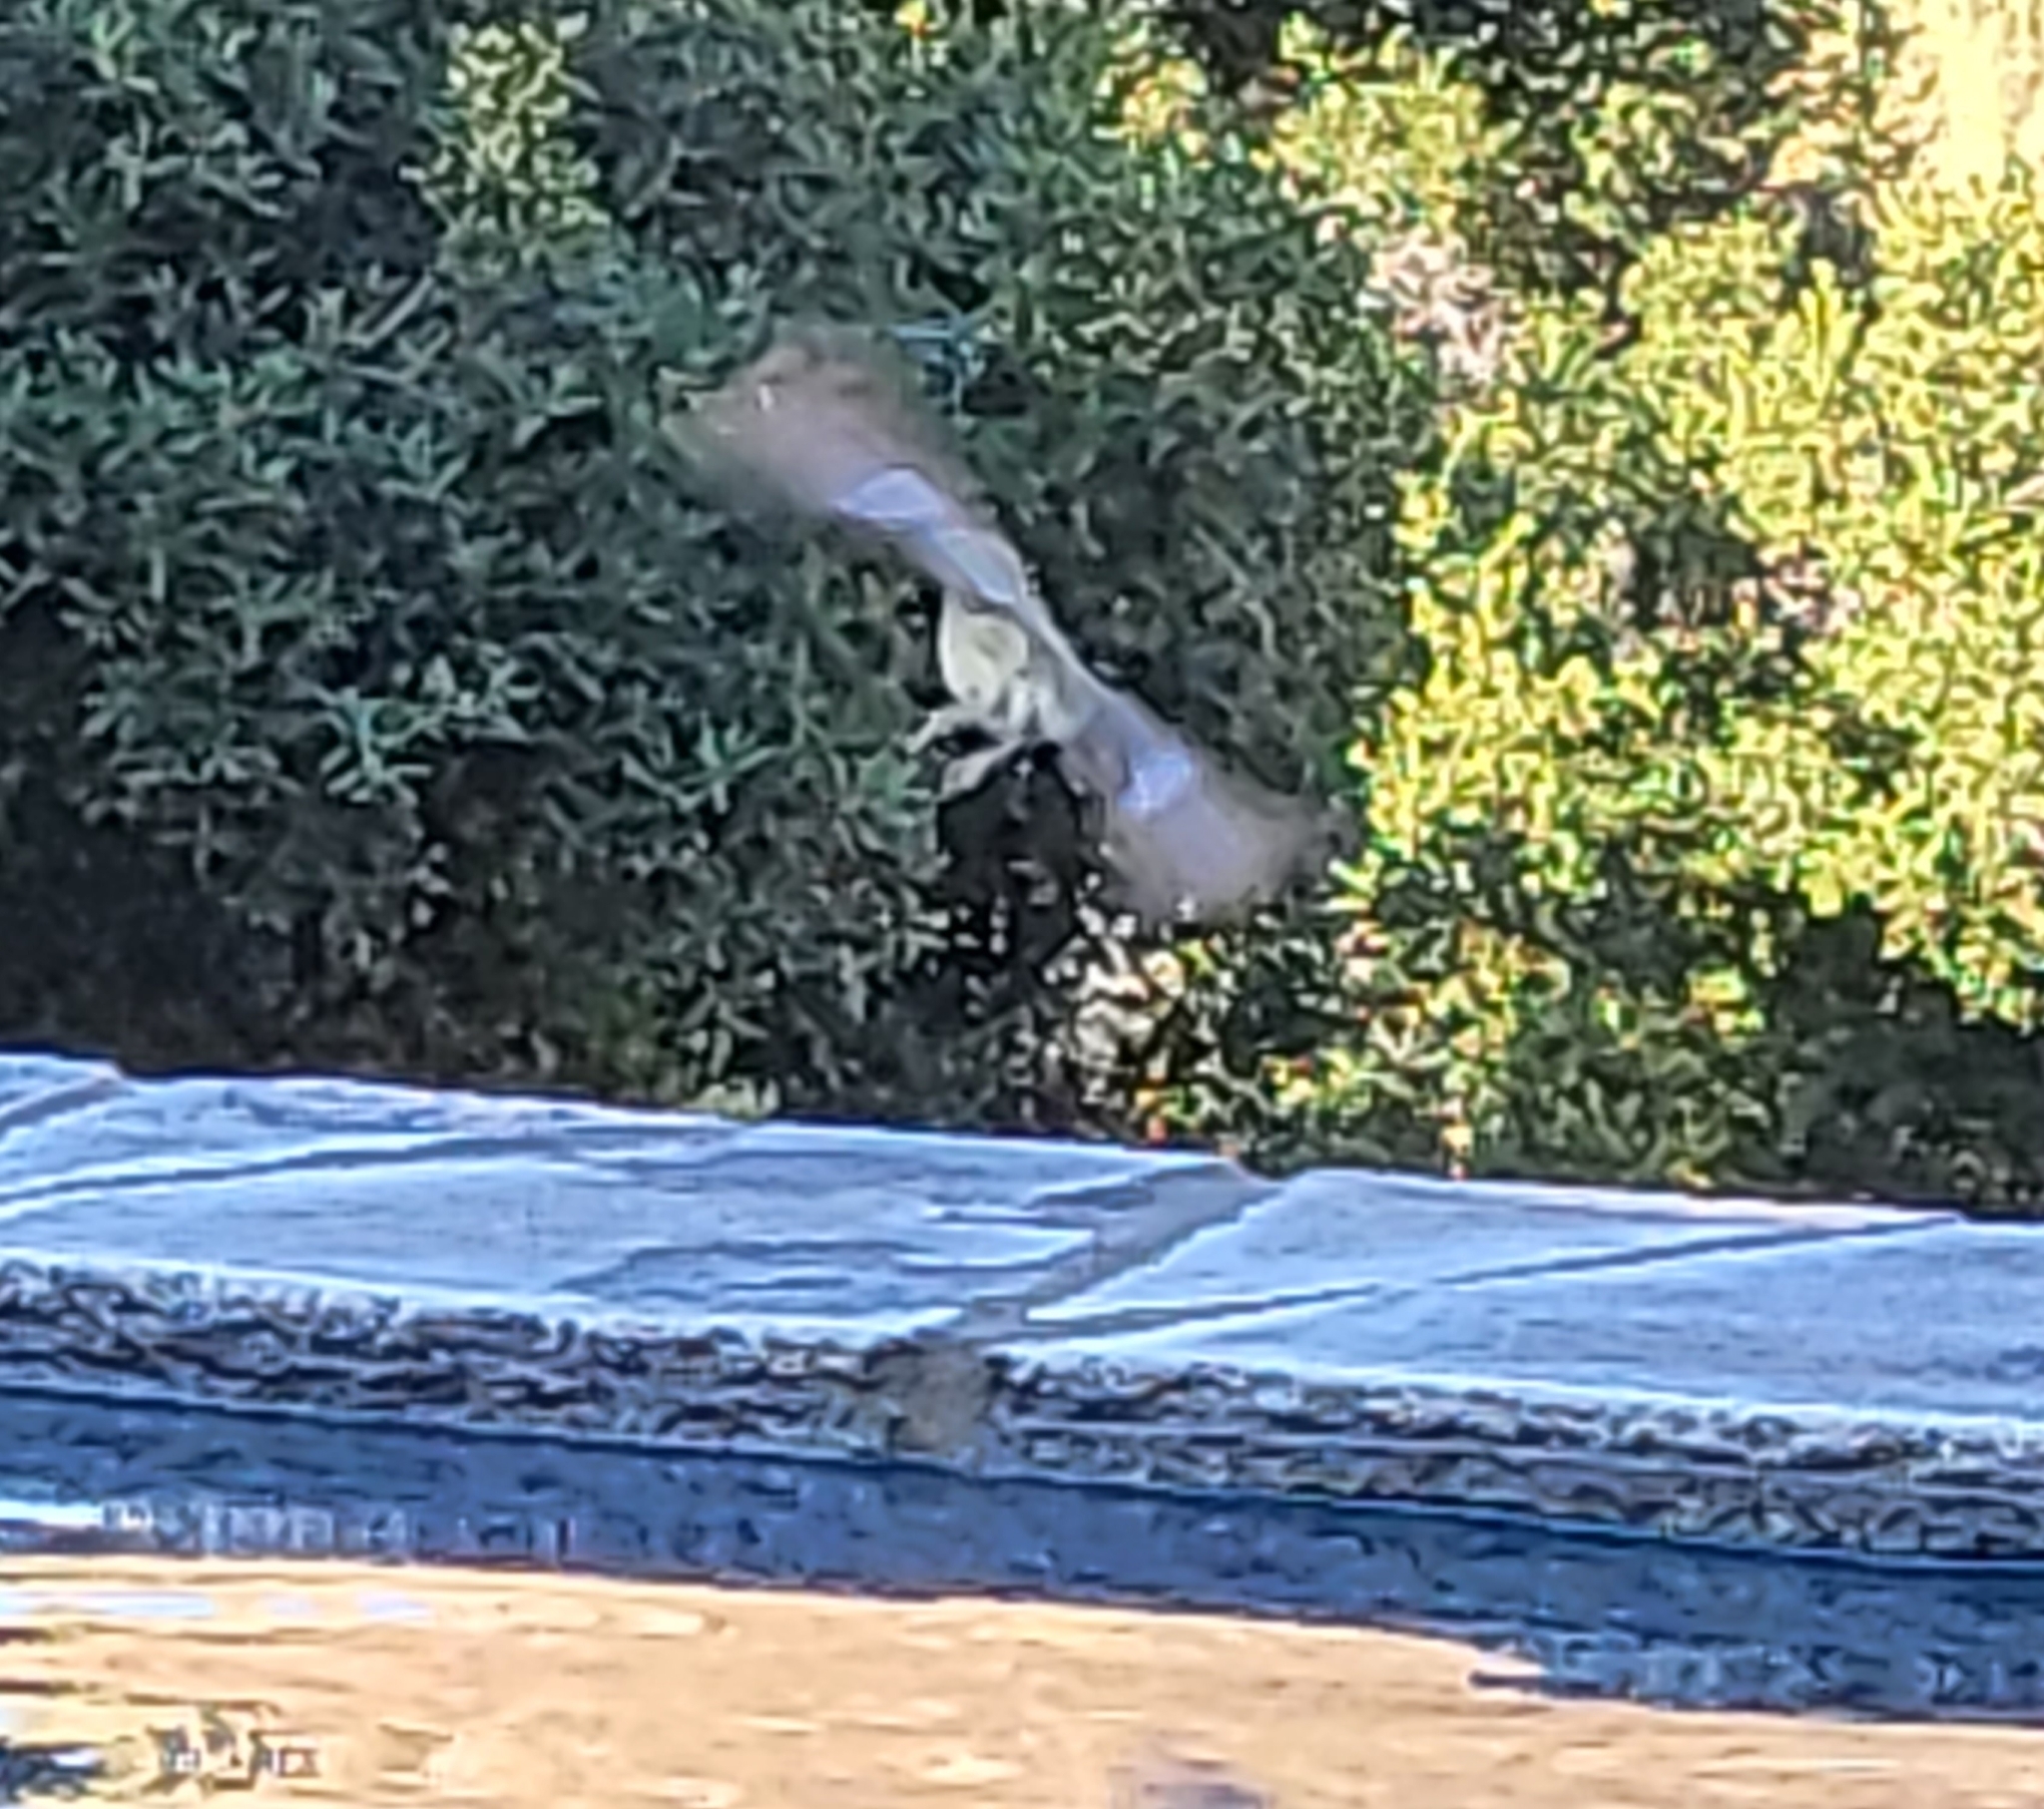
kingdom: Animalia
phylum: Chordata
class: Aves
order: Passeriformes
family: Fringillidae
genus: Spinus
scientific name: Spinus psaltria
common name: Lesser goldfinch
